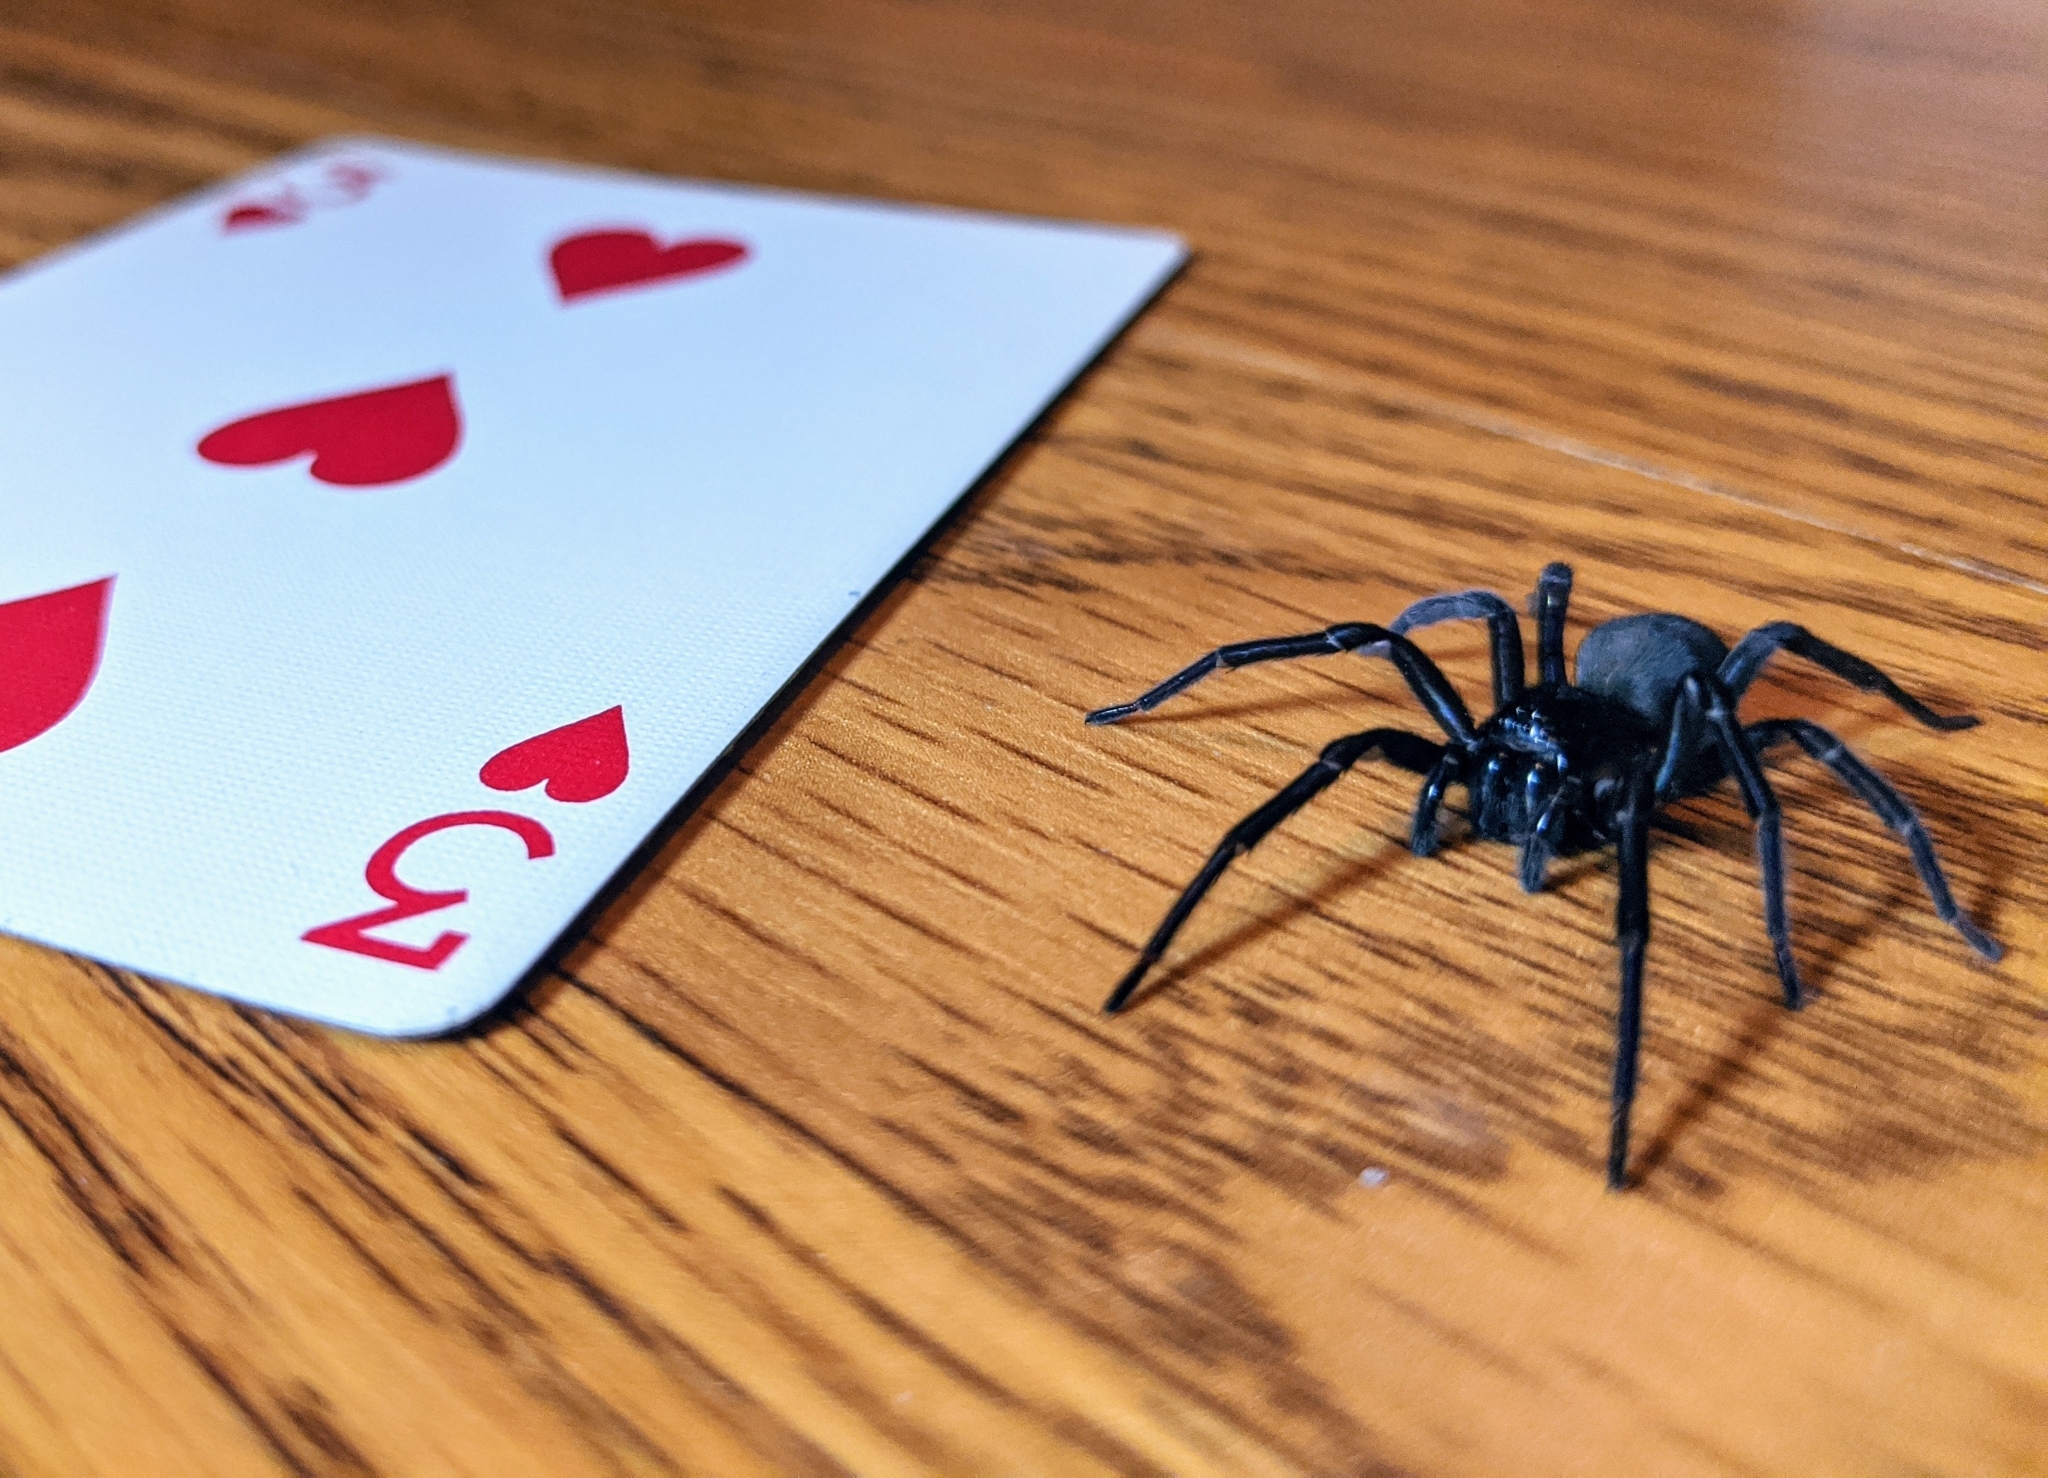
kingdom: Animalia
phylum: Arthropoda
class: Arachnida
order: Araneae
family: Amaurobiidae
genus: Amaurobius
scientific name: Amaurobius ferox
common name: Black laceweaver
